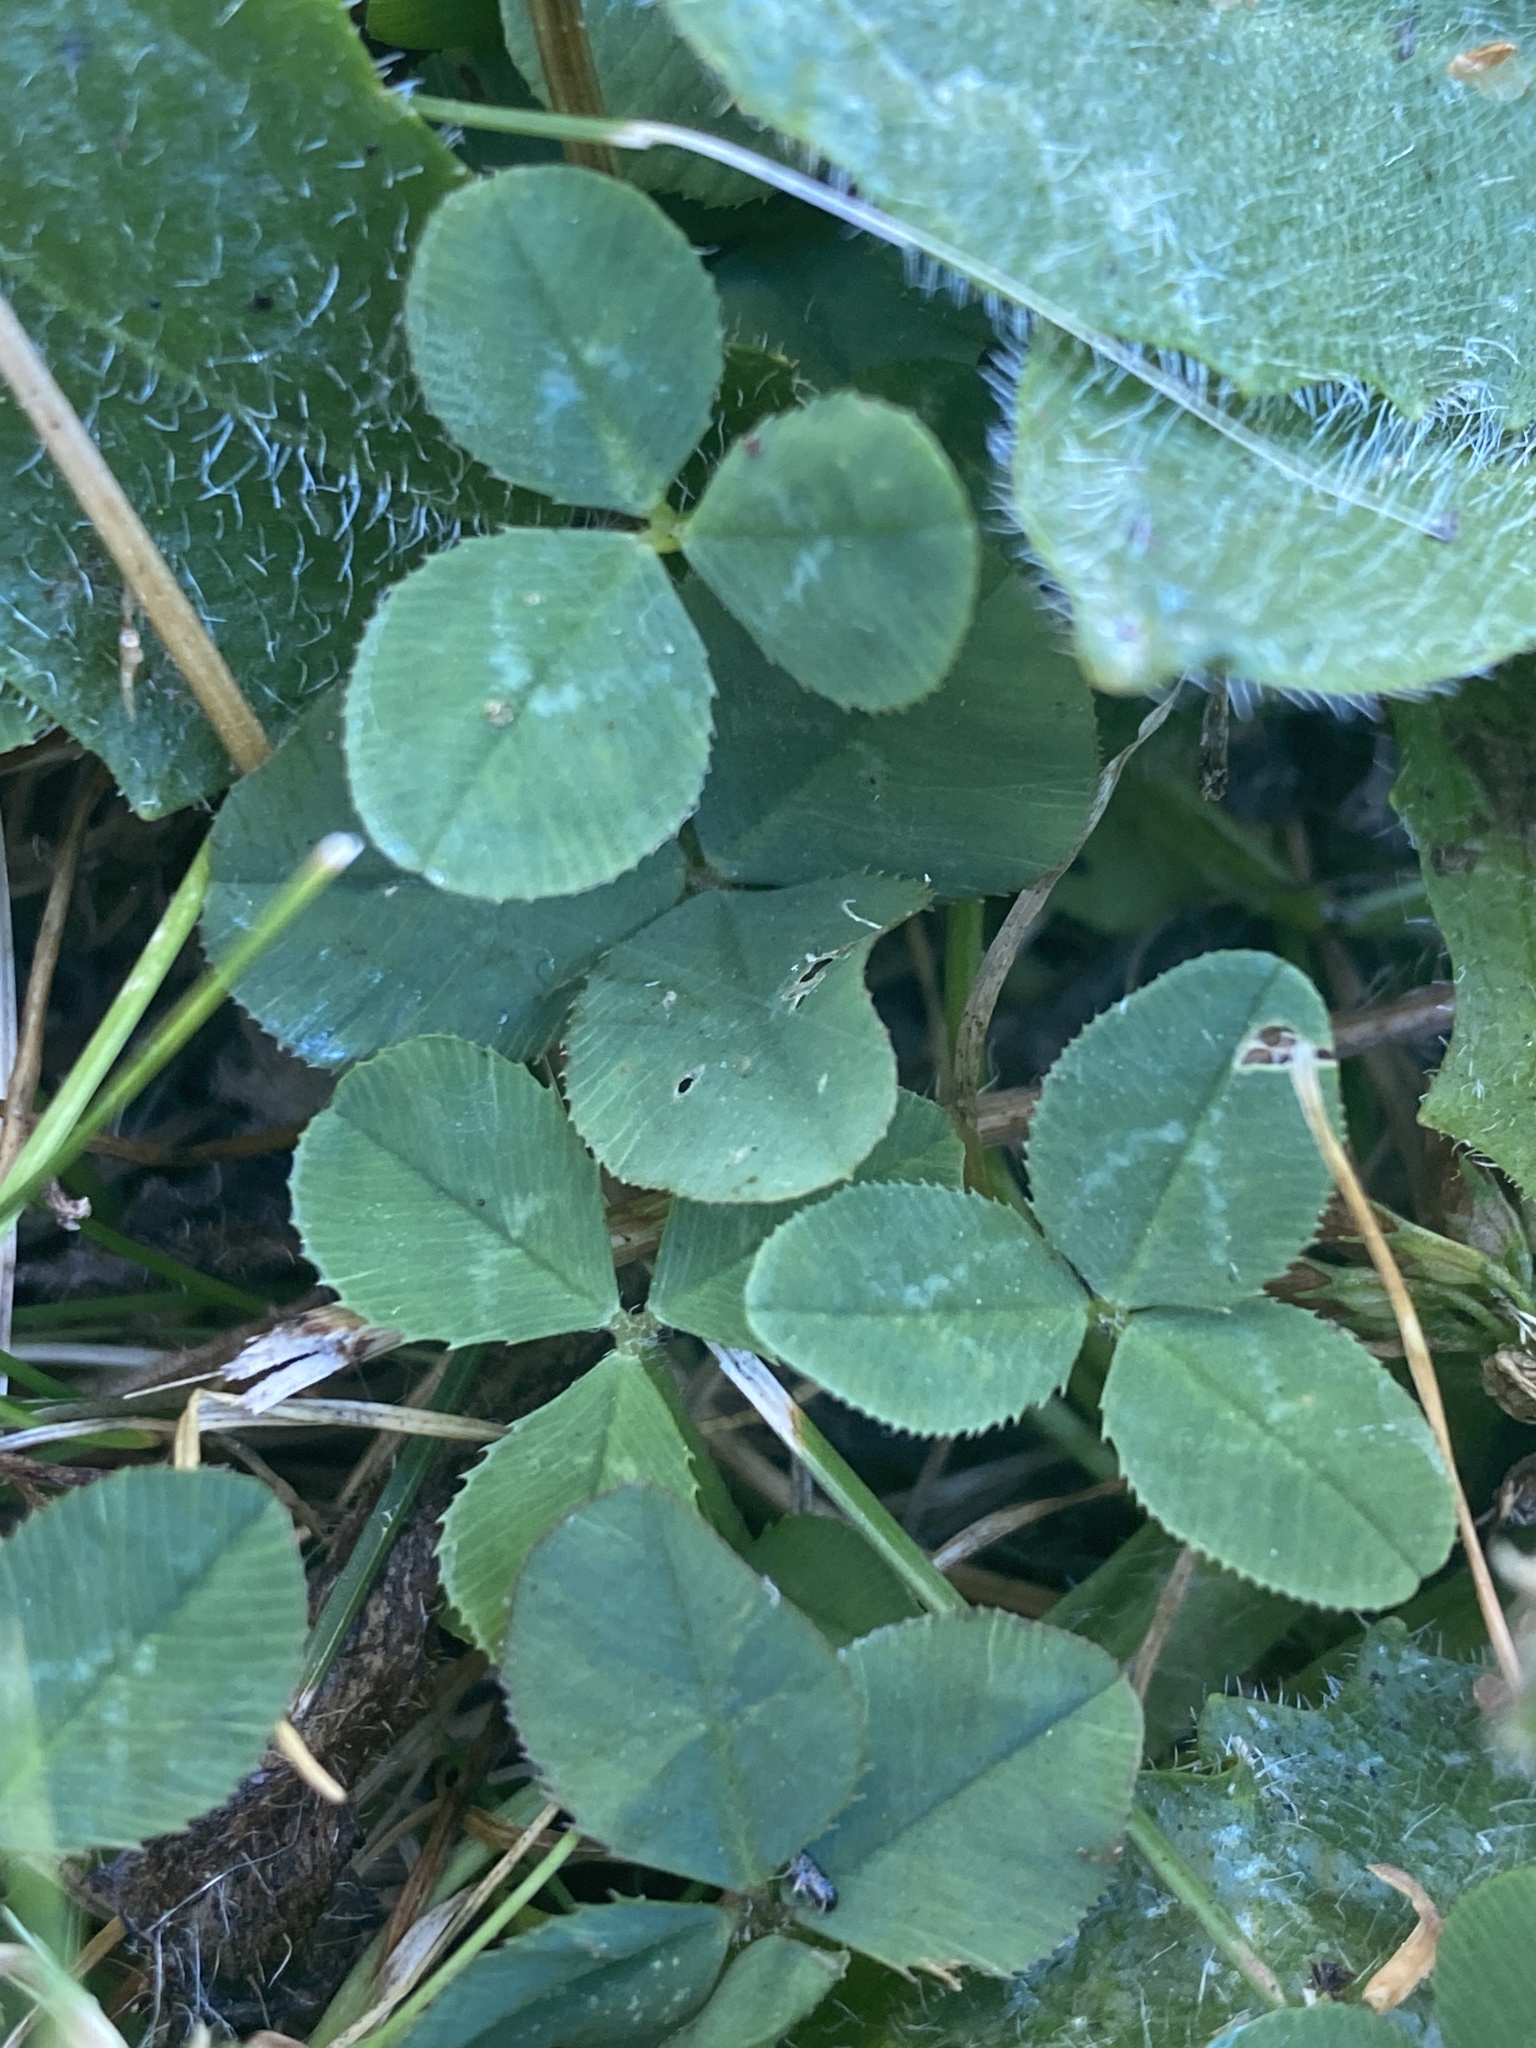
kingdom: Plantae
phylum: Tracheophyta
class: Magnoliopsida
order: Fabales
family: Fabaceae
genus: Trifolium
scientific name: Trifolium repens
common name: White clover
